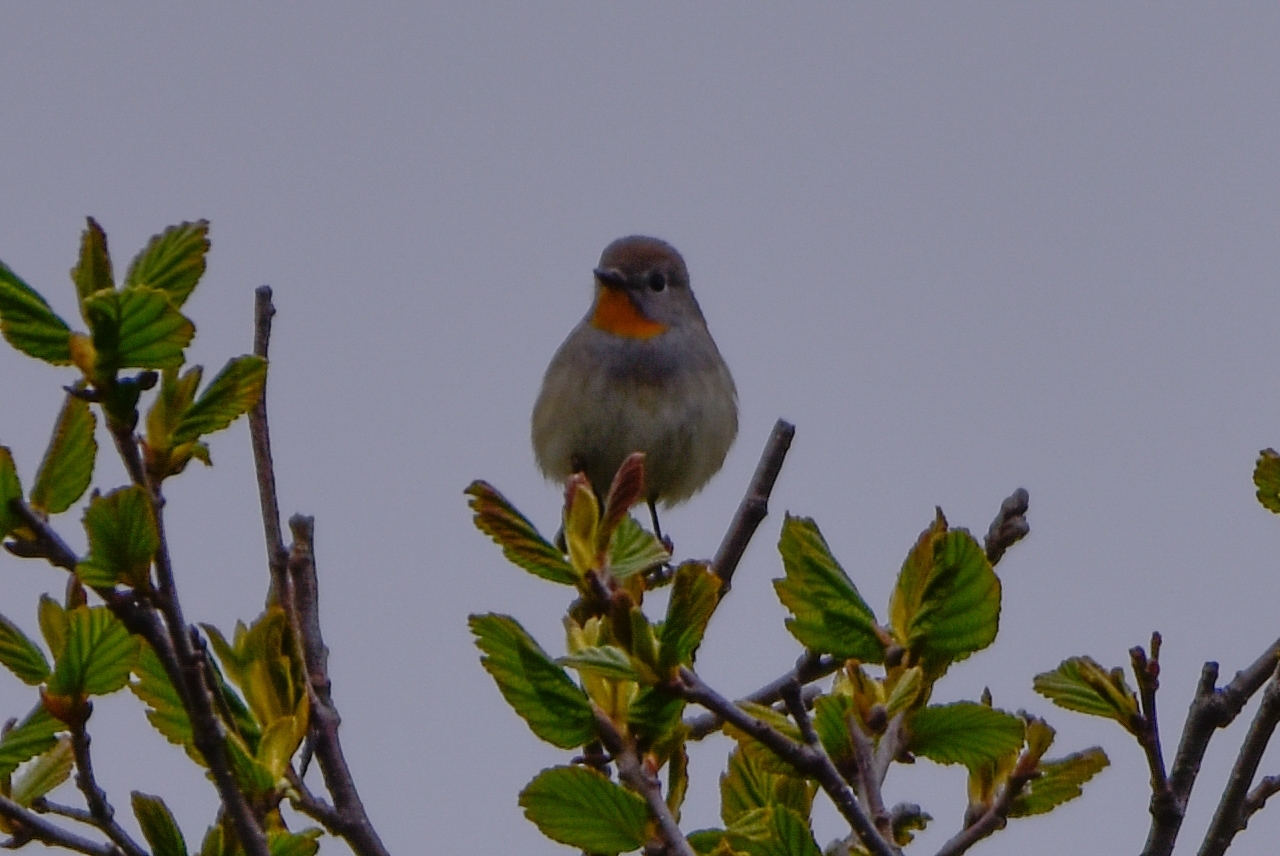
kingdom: Animalia
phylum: Chordata
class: Aves
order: Passeriformes
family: Muscicapidae
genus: Ficedula
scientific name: Ficedula albicilla
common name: Taiga flycatcher
